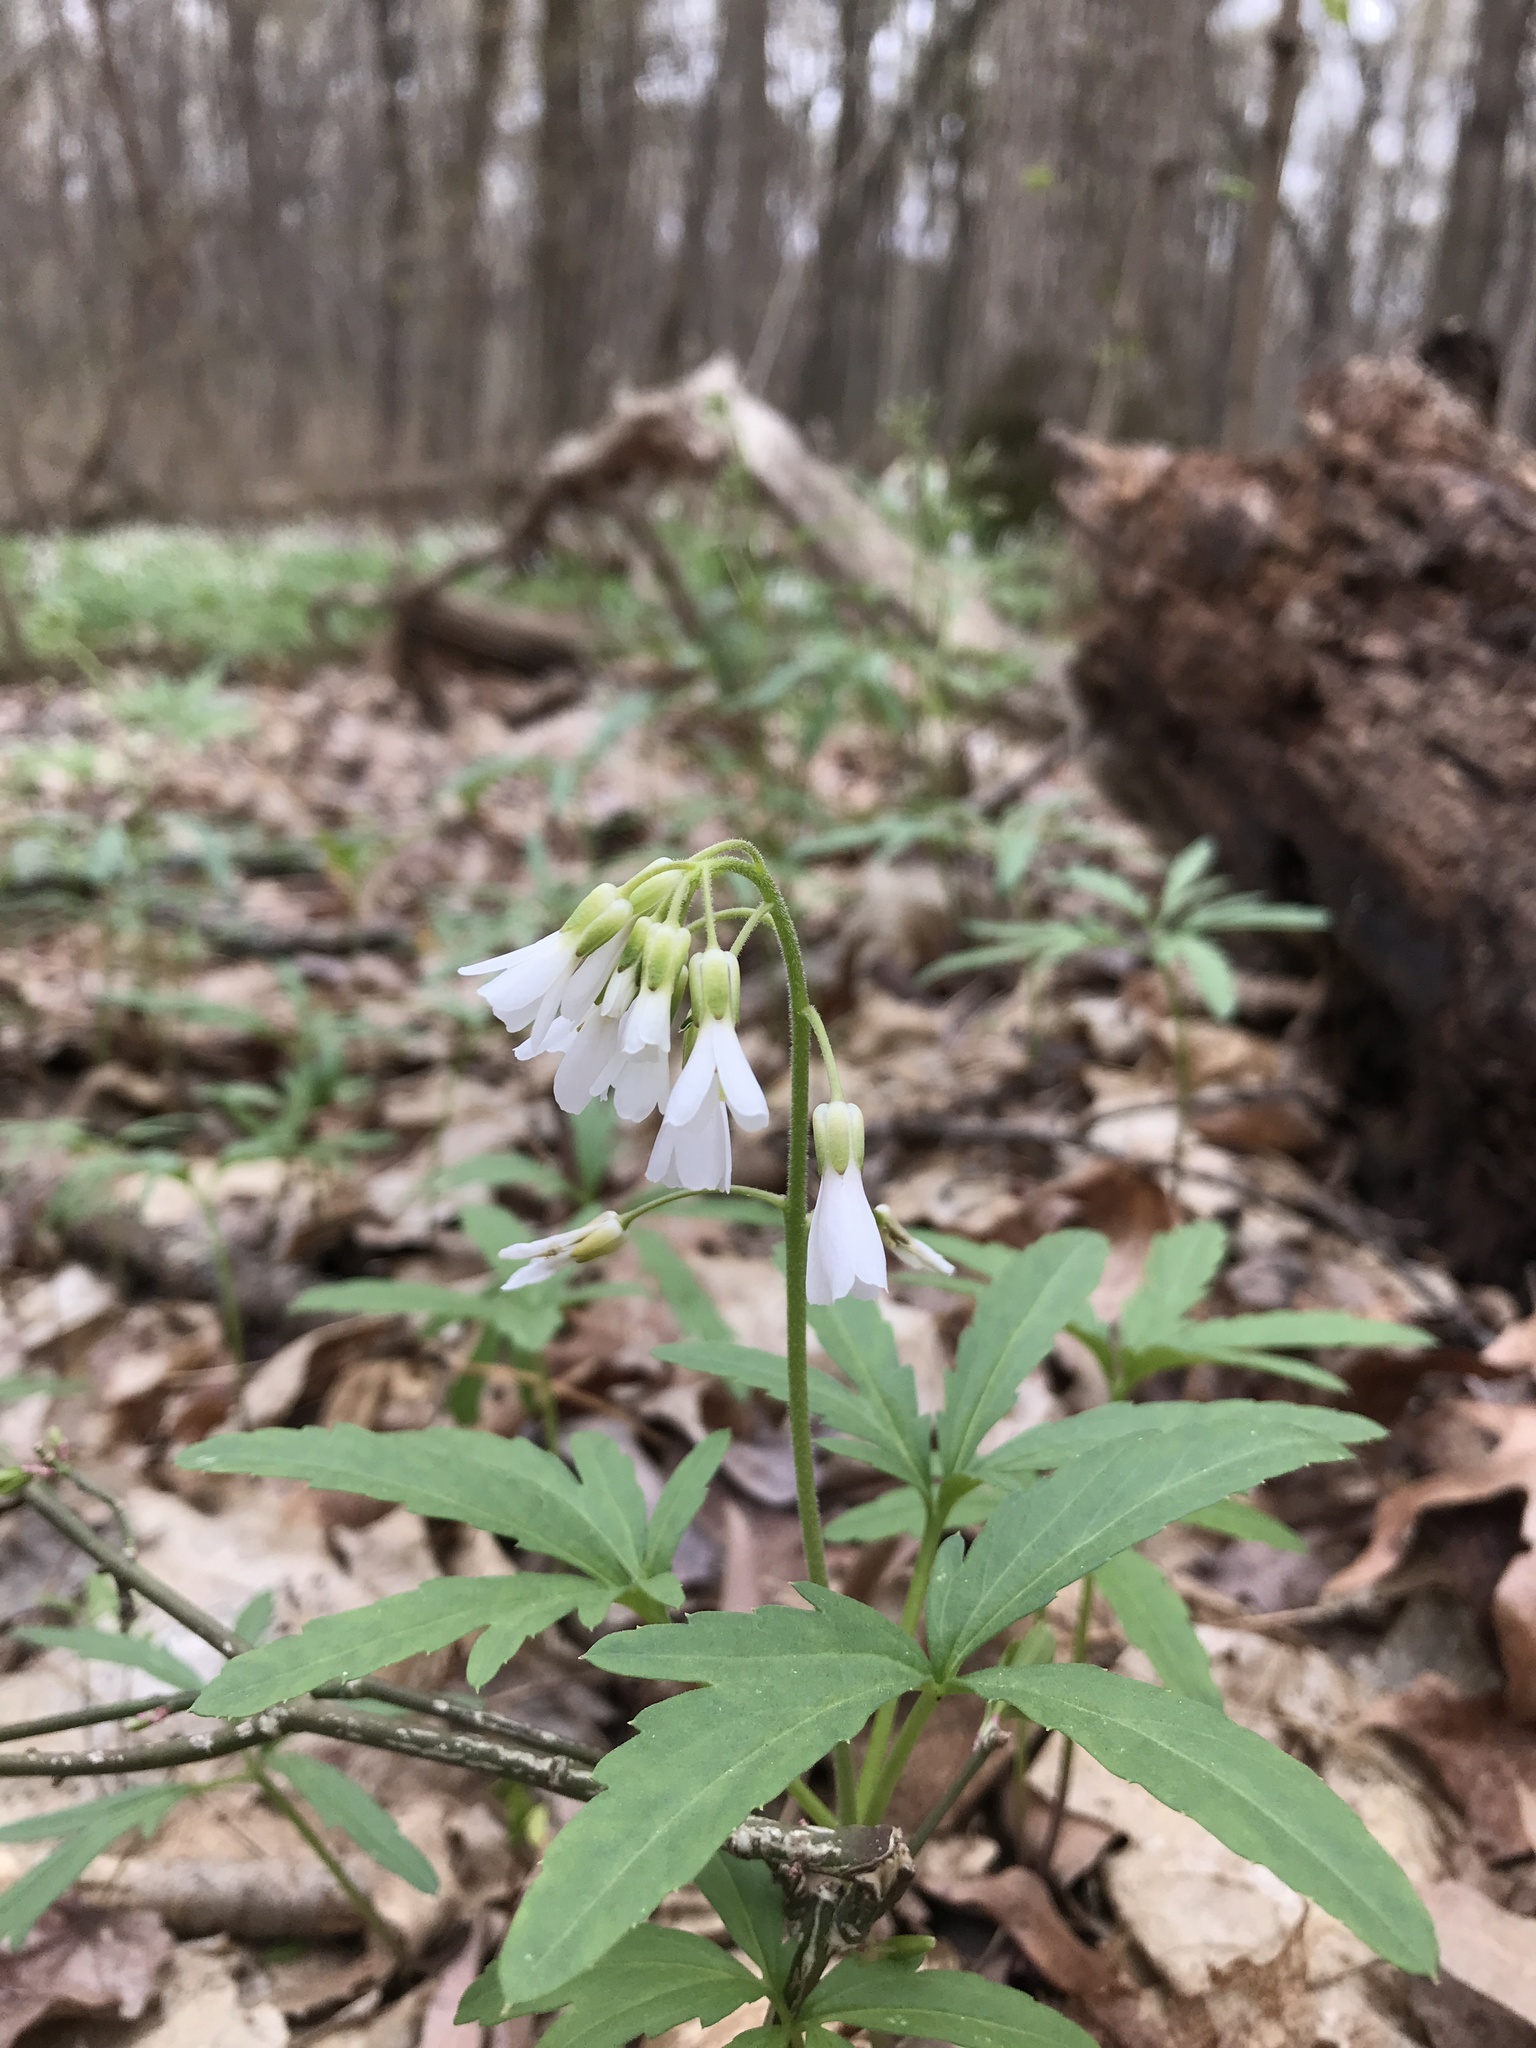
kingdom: Plantae
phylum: Tracheophyta
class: Magnoliopsida
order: Brassicales
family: Brassicaceae
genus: Cardamine
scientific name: Cardamine concatenata
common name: Cut-leaf toothcup
